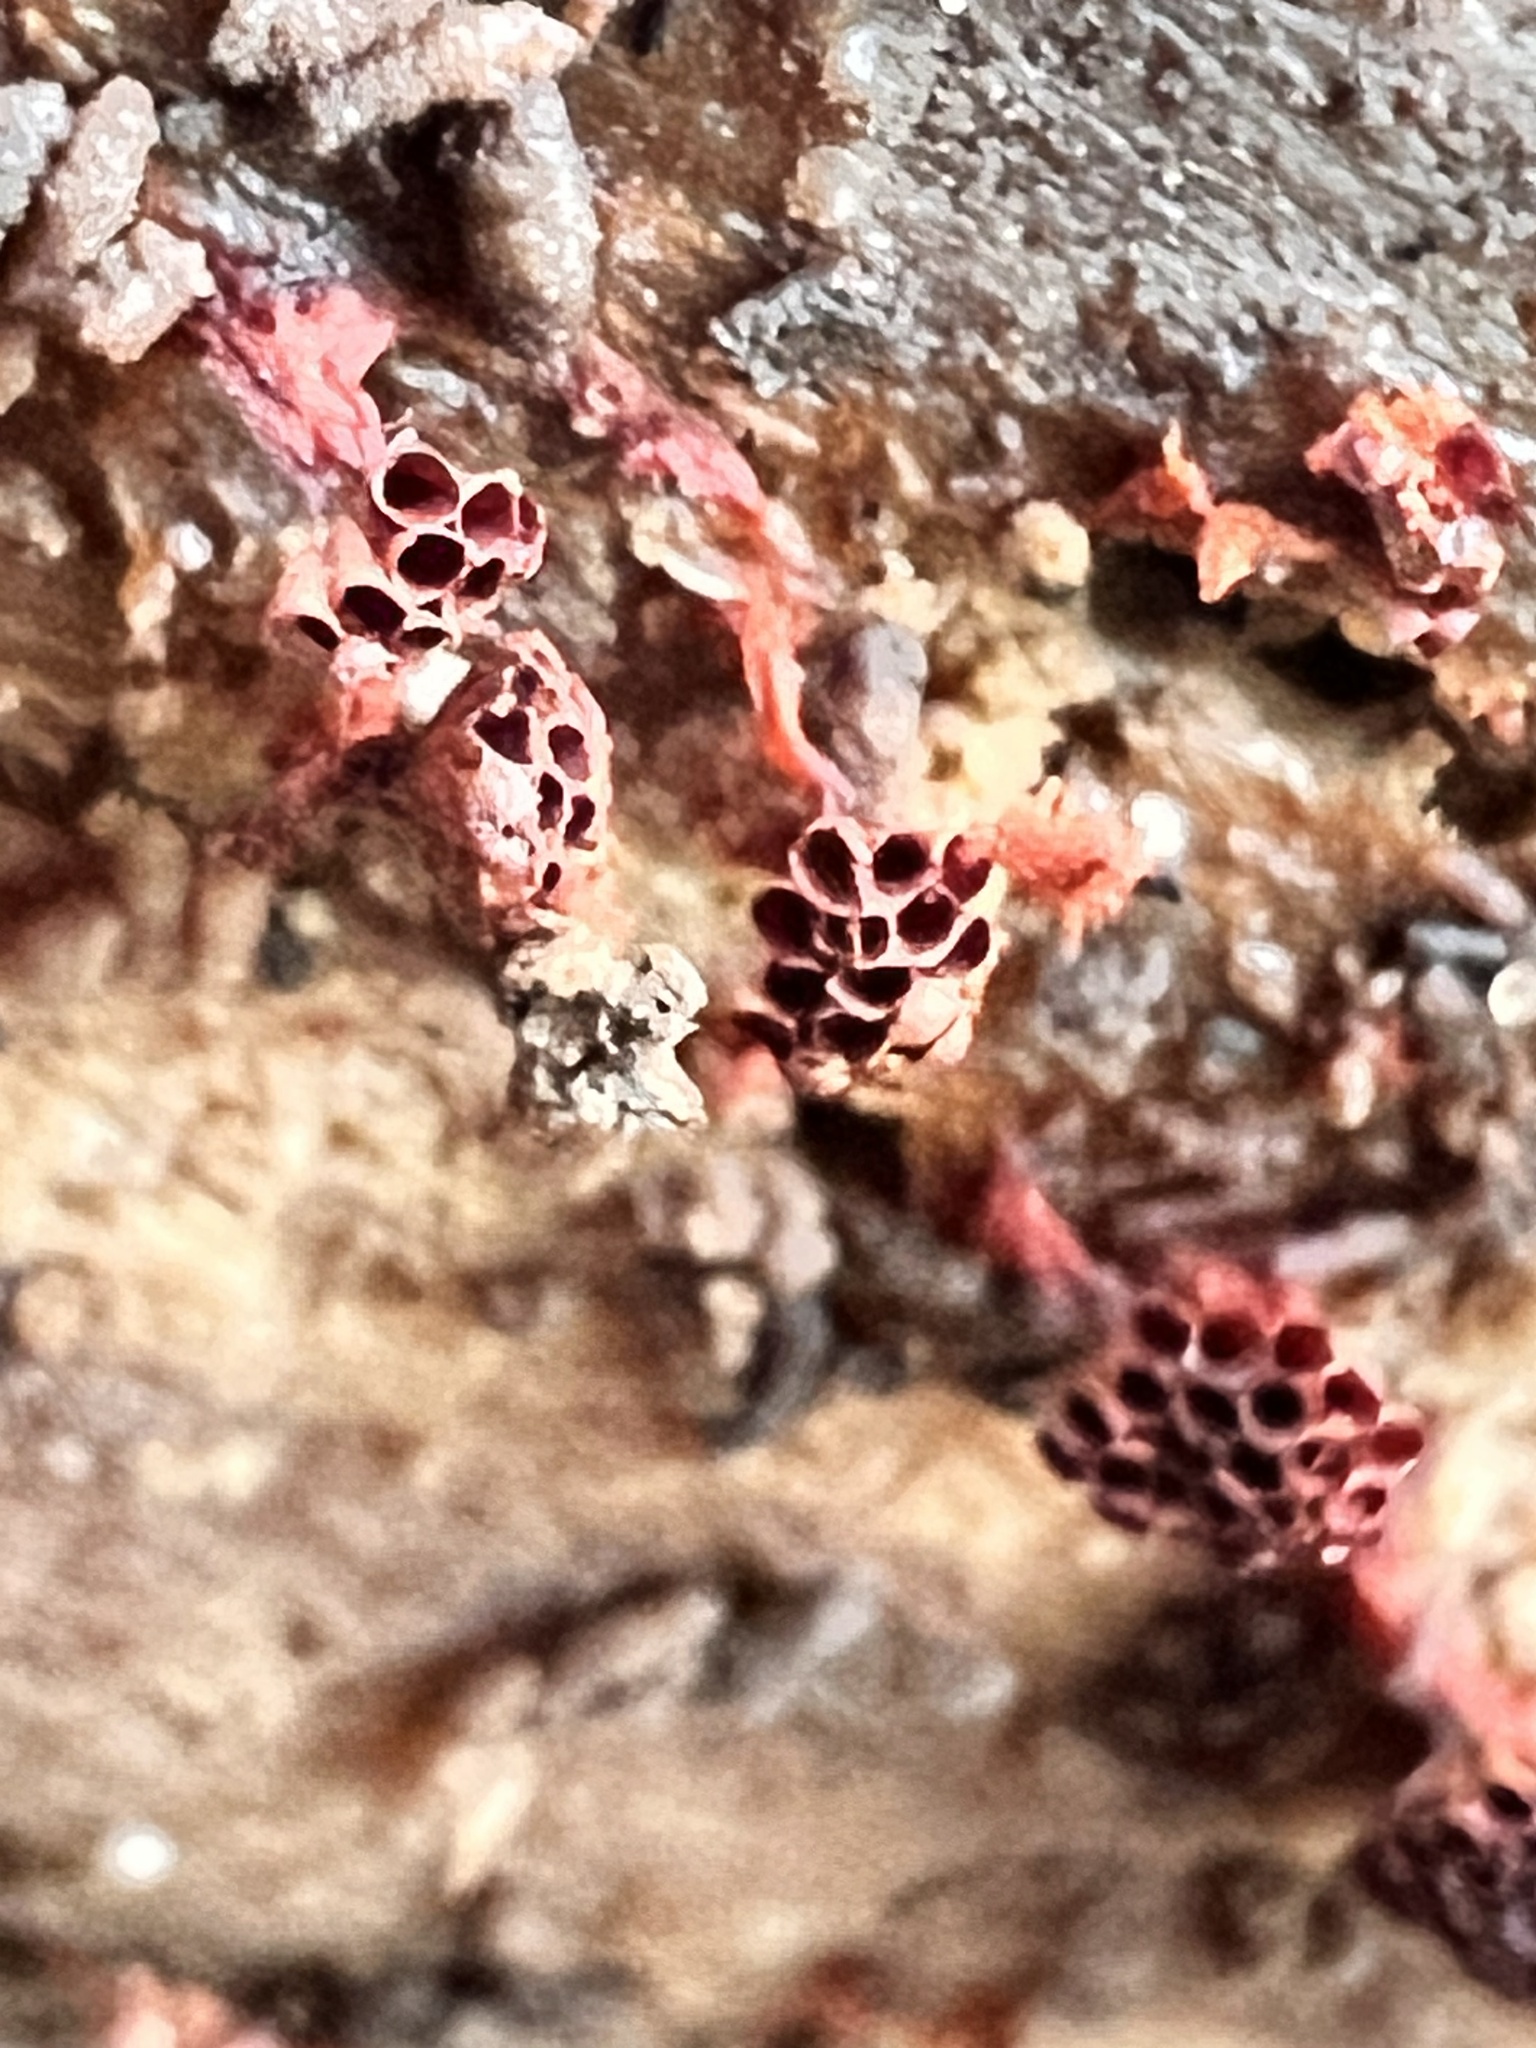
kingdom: Protozoa
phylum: Mycetozoa
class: Myxomycetes
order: Trichiales
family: Trichiaceae
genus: Metatrichia
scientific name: Metatrichia vesparia
